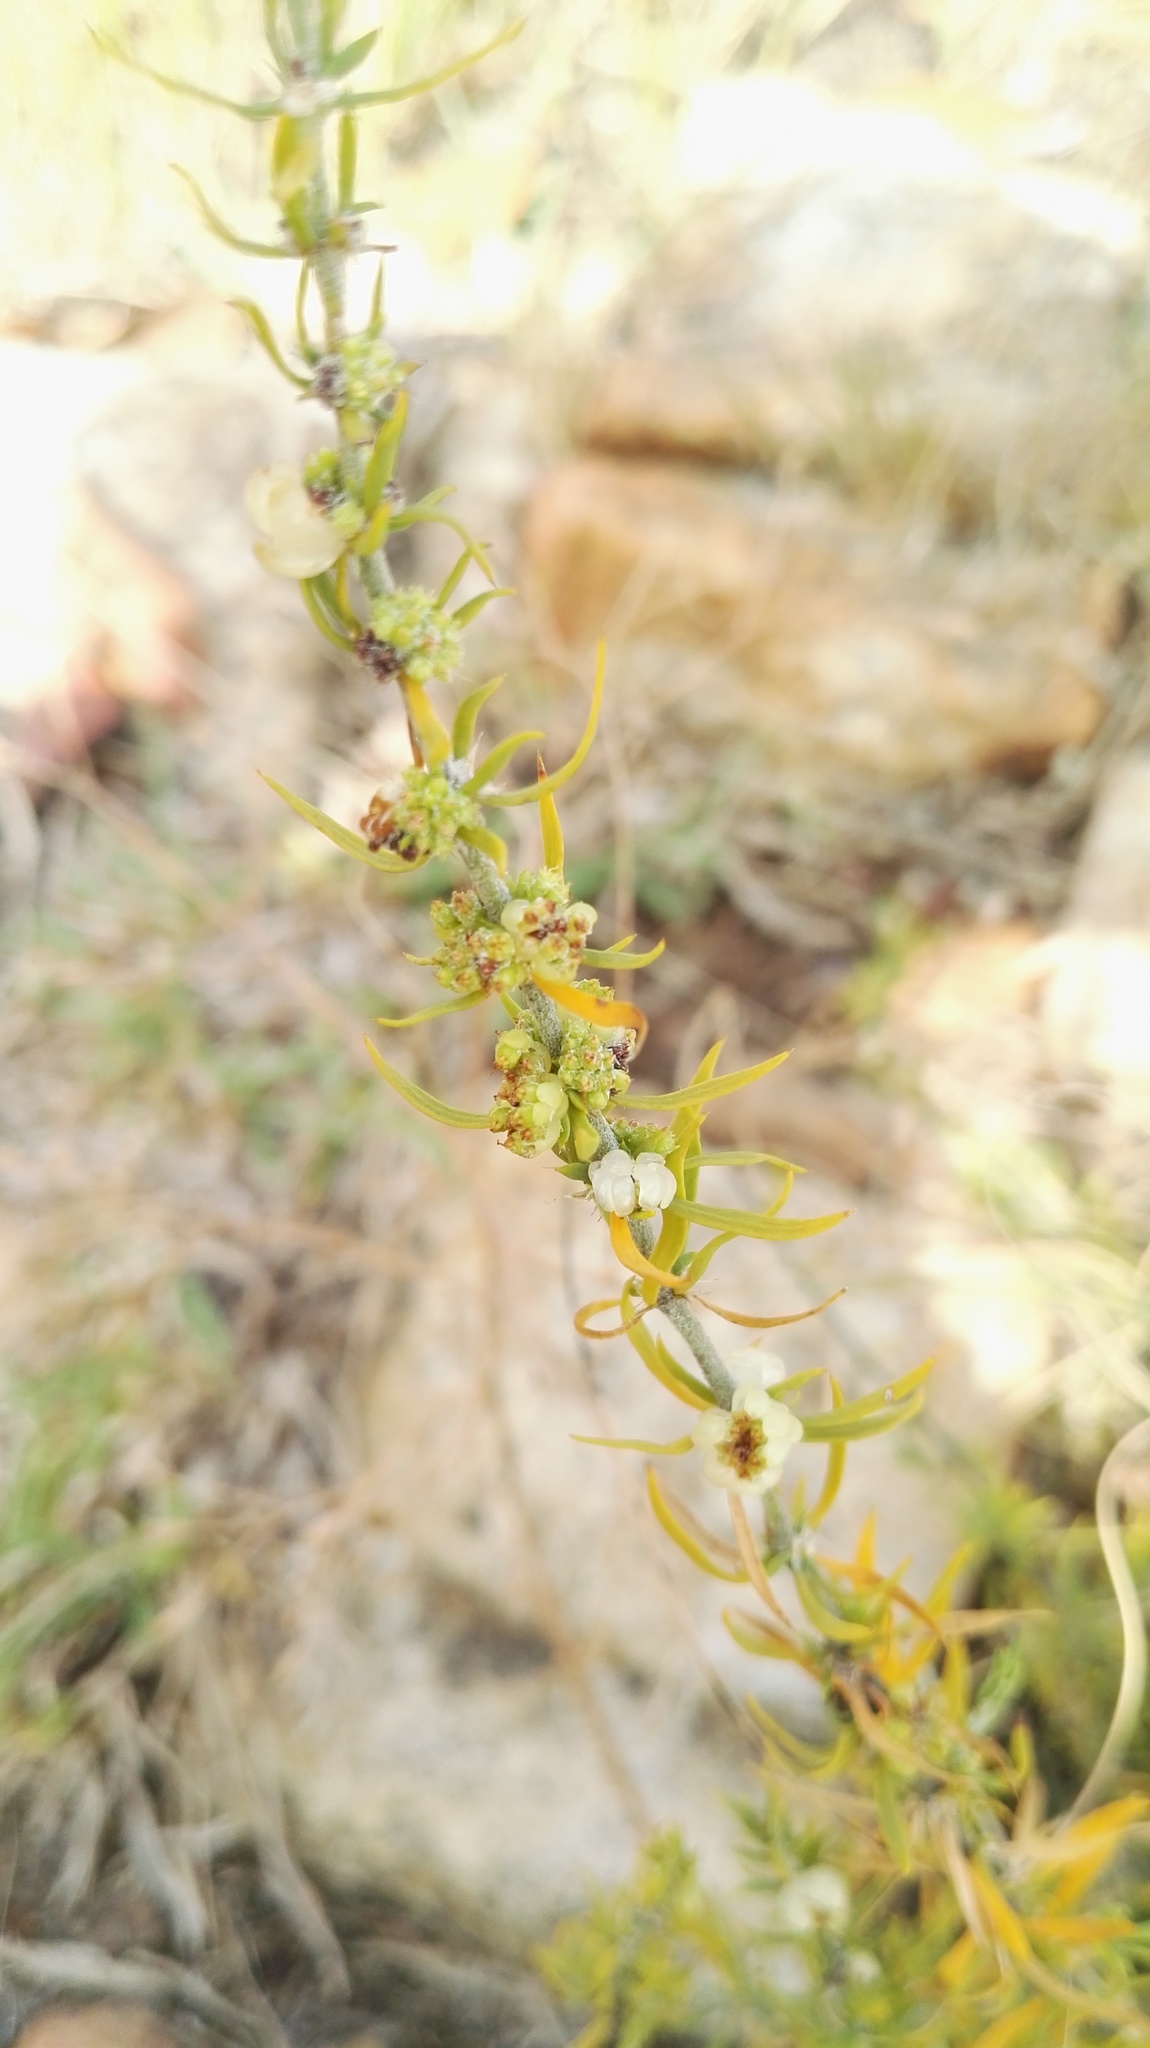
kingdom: Plantae
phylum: Tracheophyta
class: Magnoliopsida
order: Caryophyllales
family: Caryophyllaceae
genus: Pollichia
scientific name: Pollichia campestris
